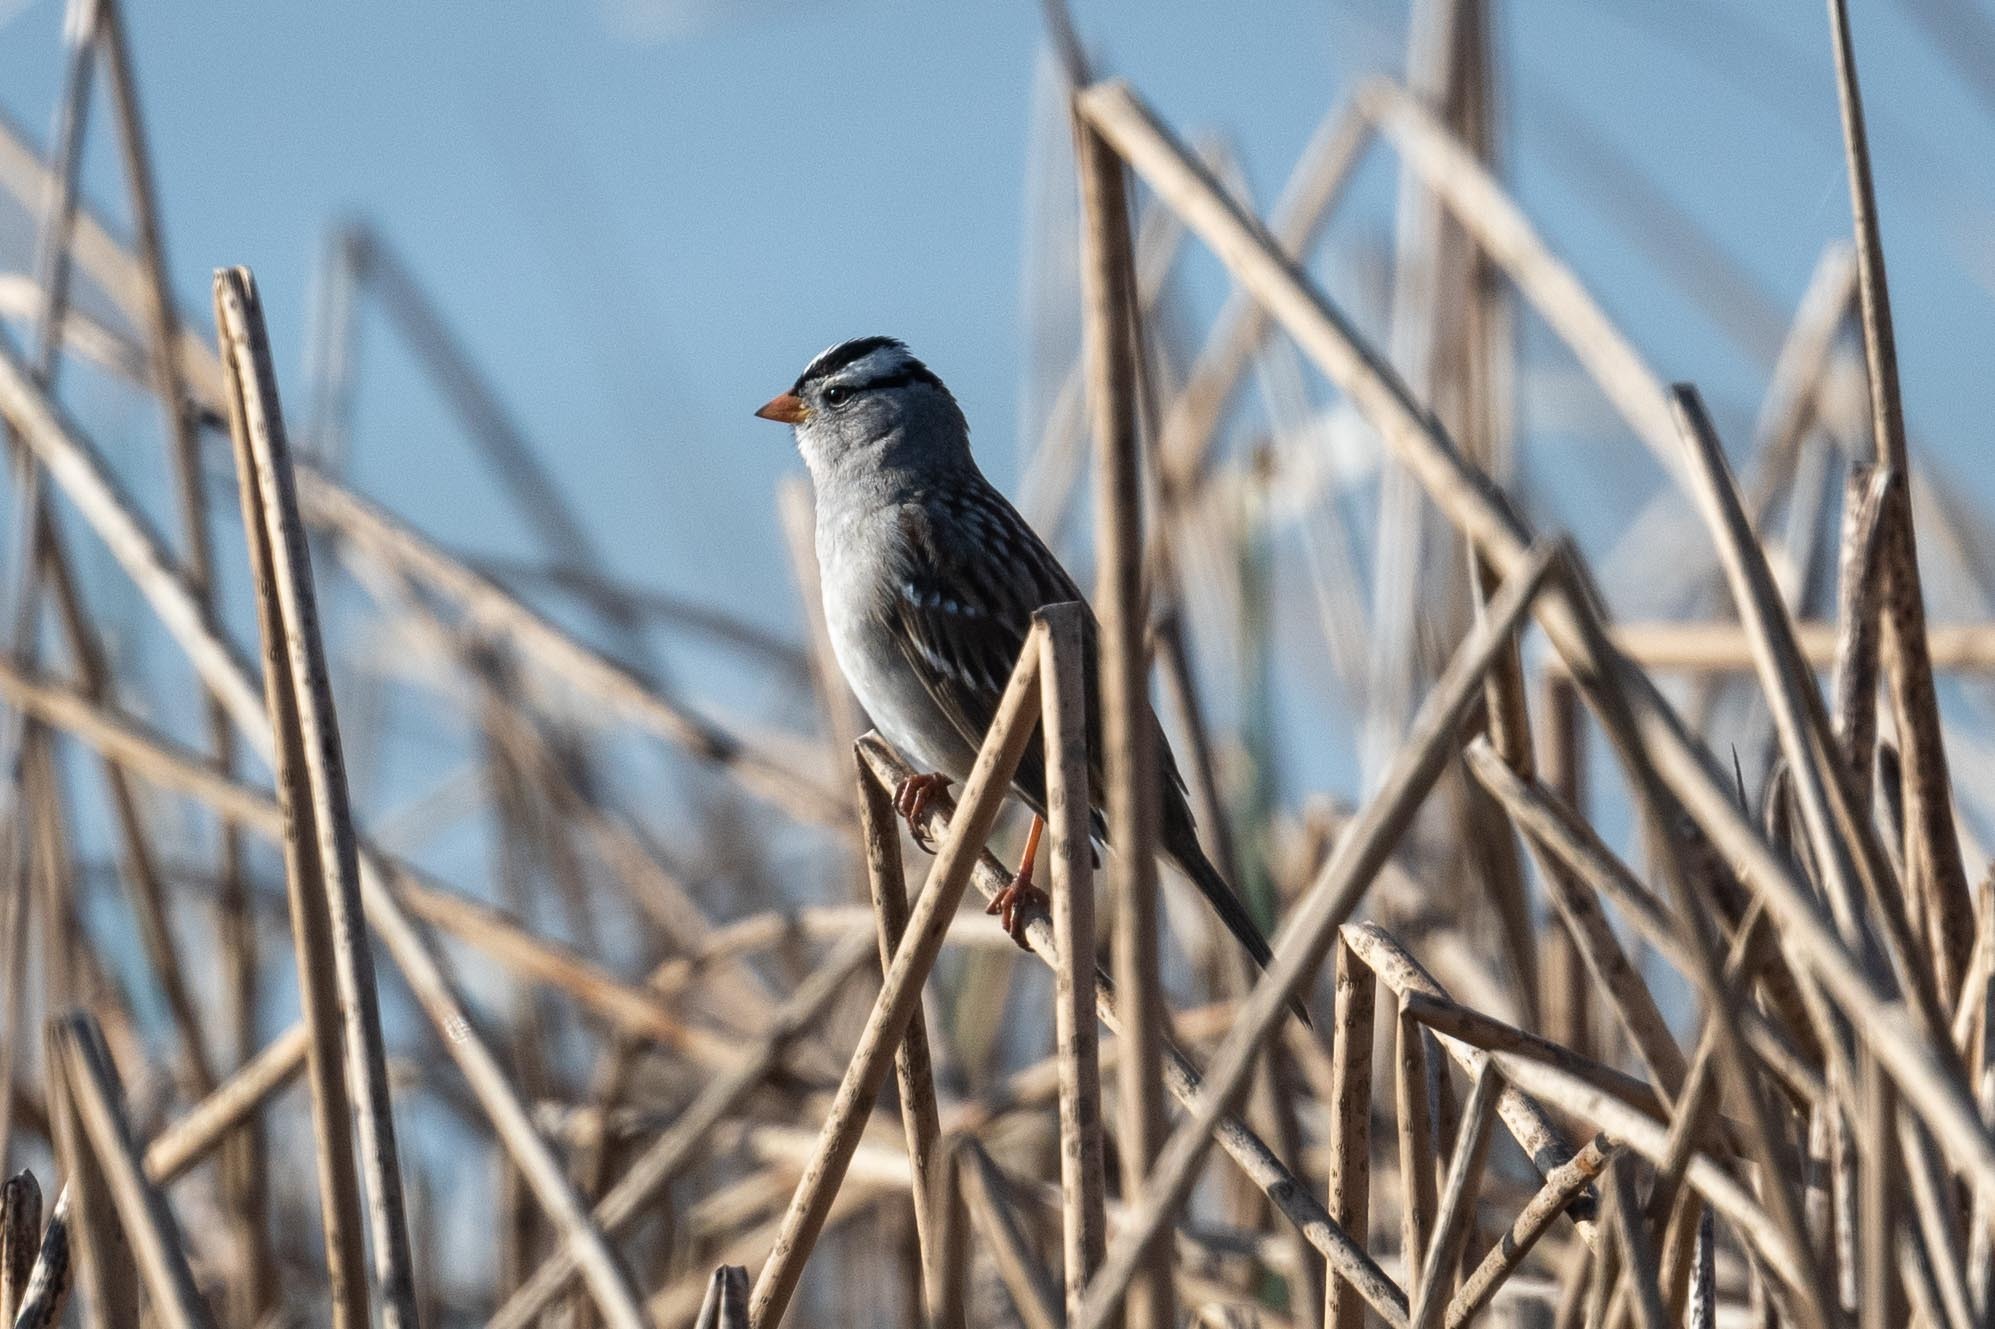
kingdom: Animalia
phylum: Chordata
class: Aves
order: Passeriformes
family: Passerellidae
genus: Zonotrichia
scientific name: Zonotrichia leucophrys
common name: White-crowned sparrow
